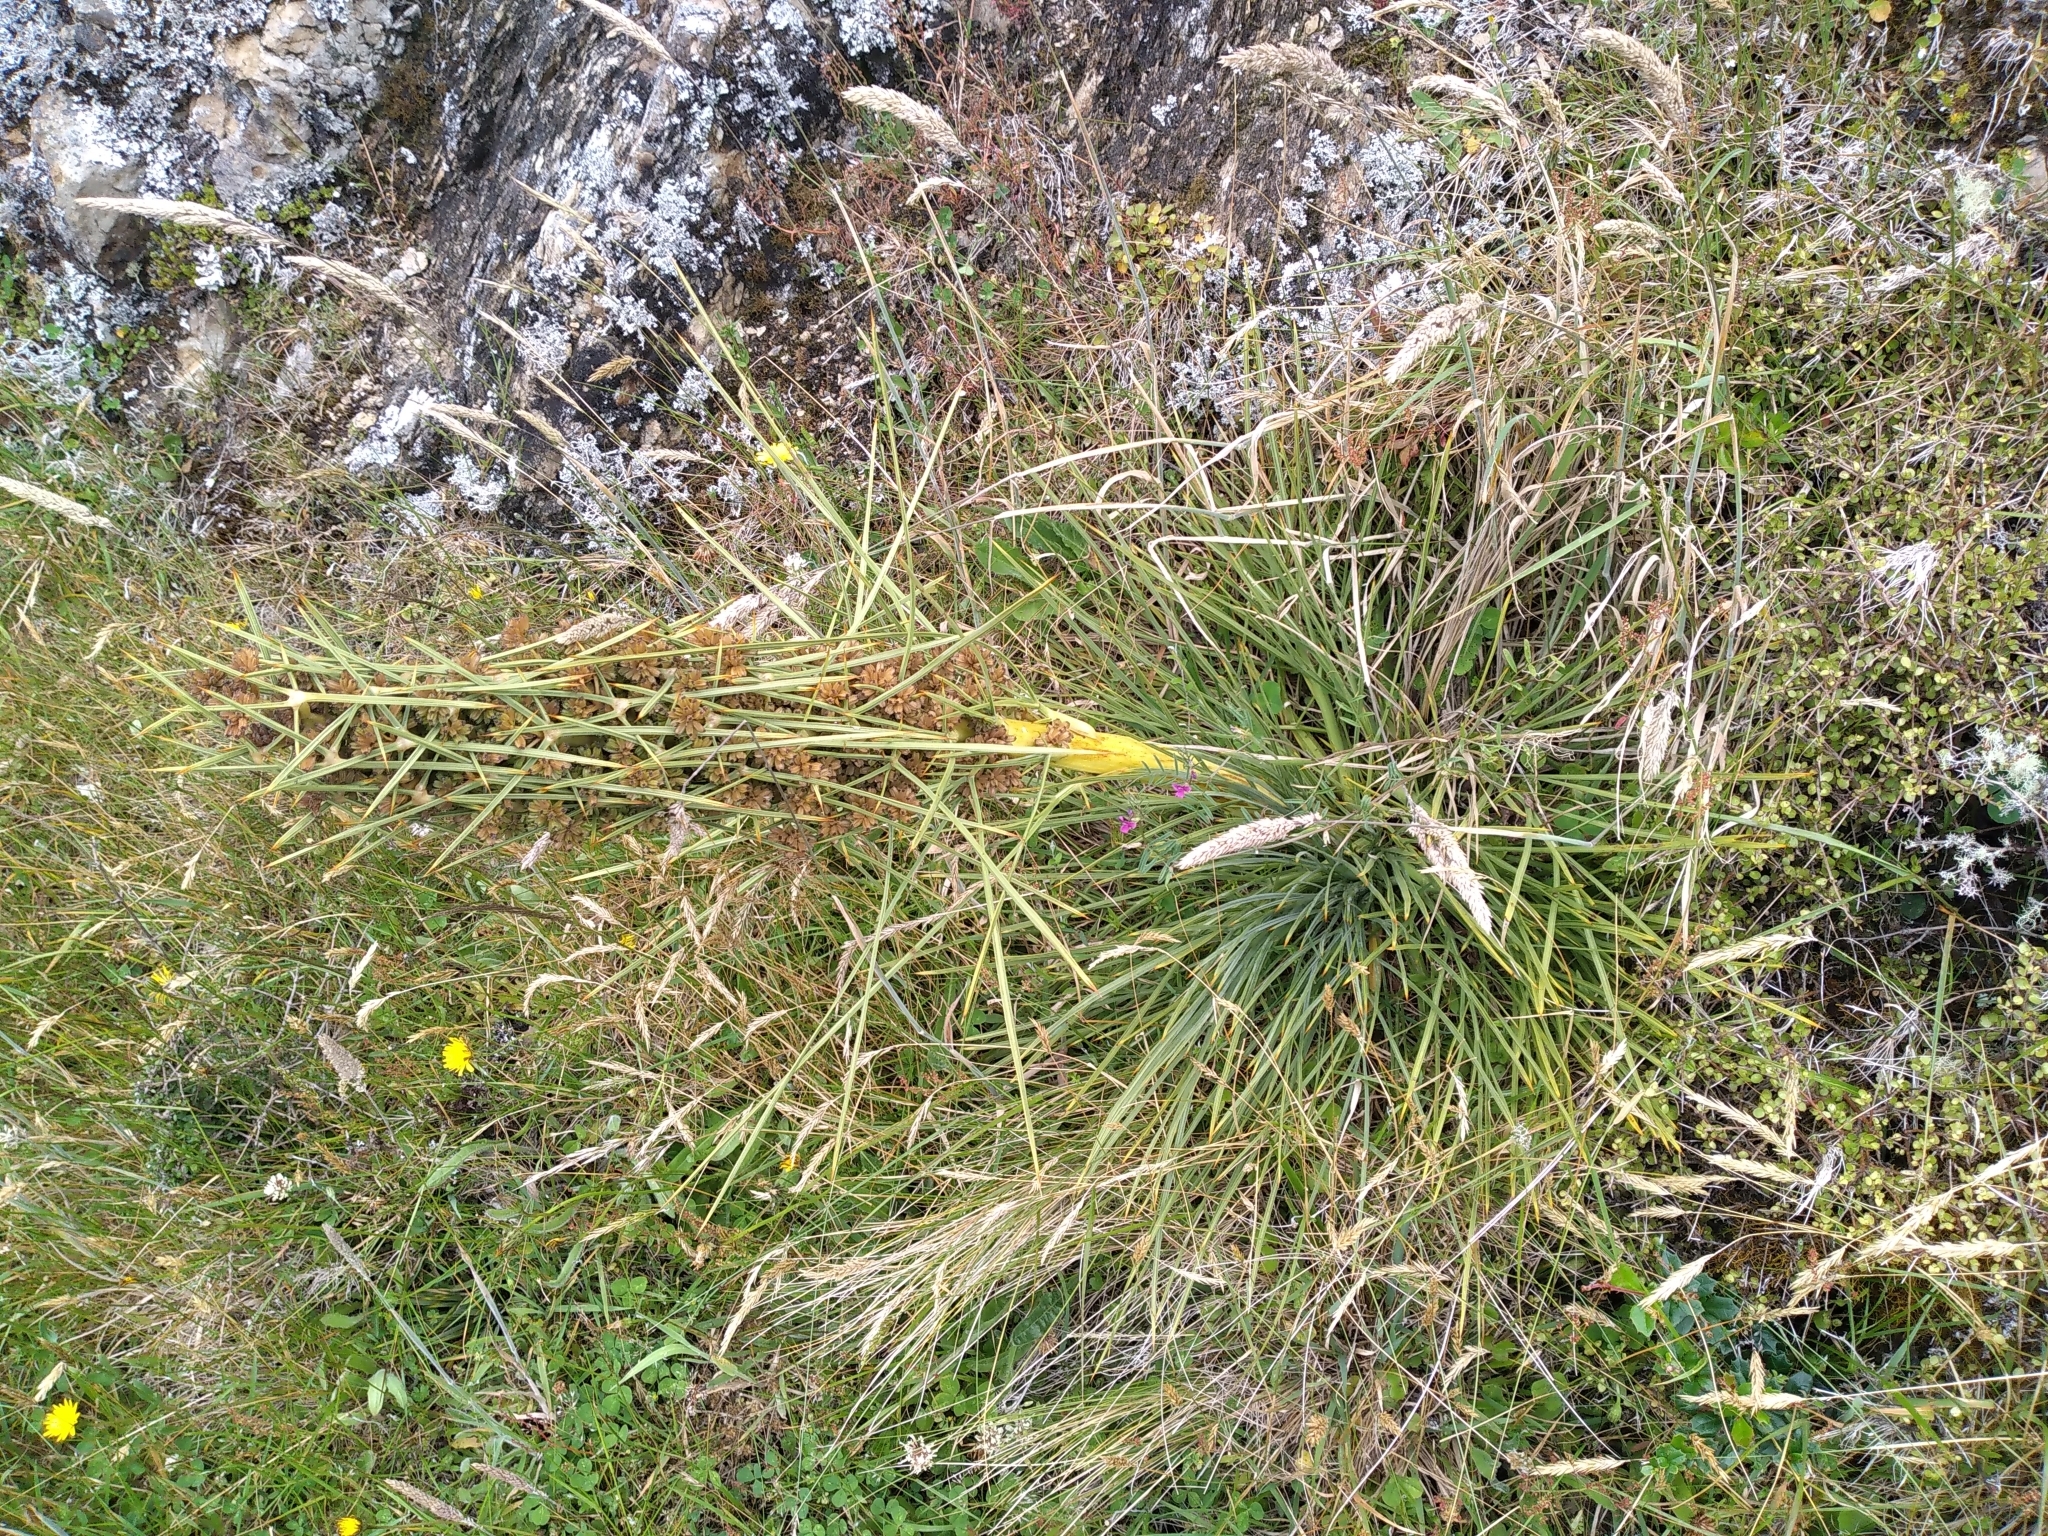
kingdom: Plantae
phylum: Tracheophyta
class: Magnoliopsida
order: Apiales
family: Apiaceae
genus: Aciphylla
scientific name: Aciphylla squarrosa
